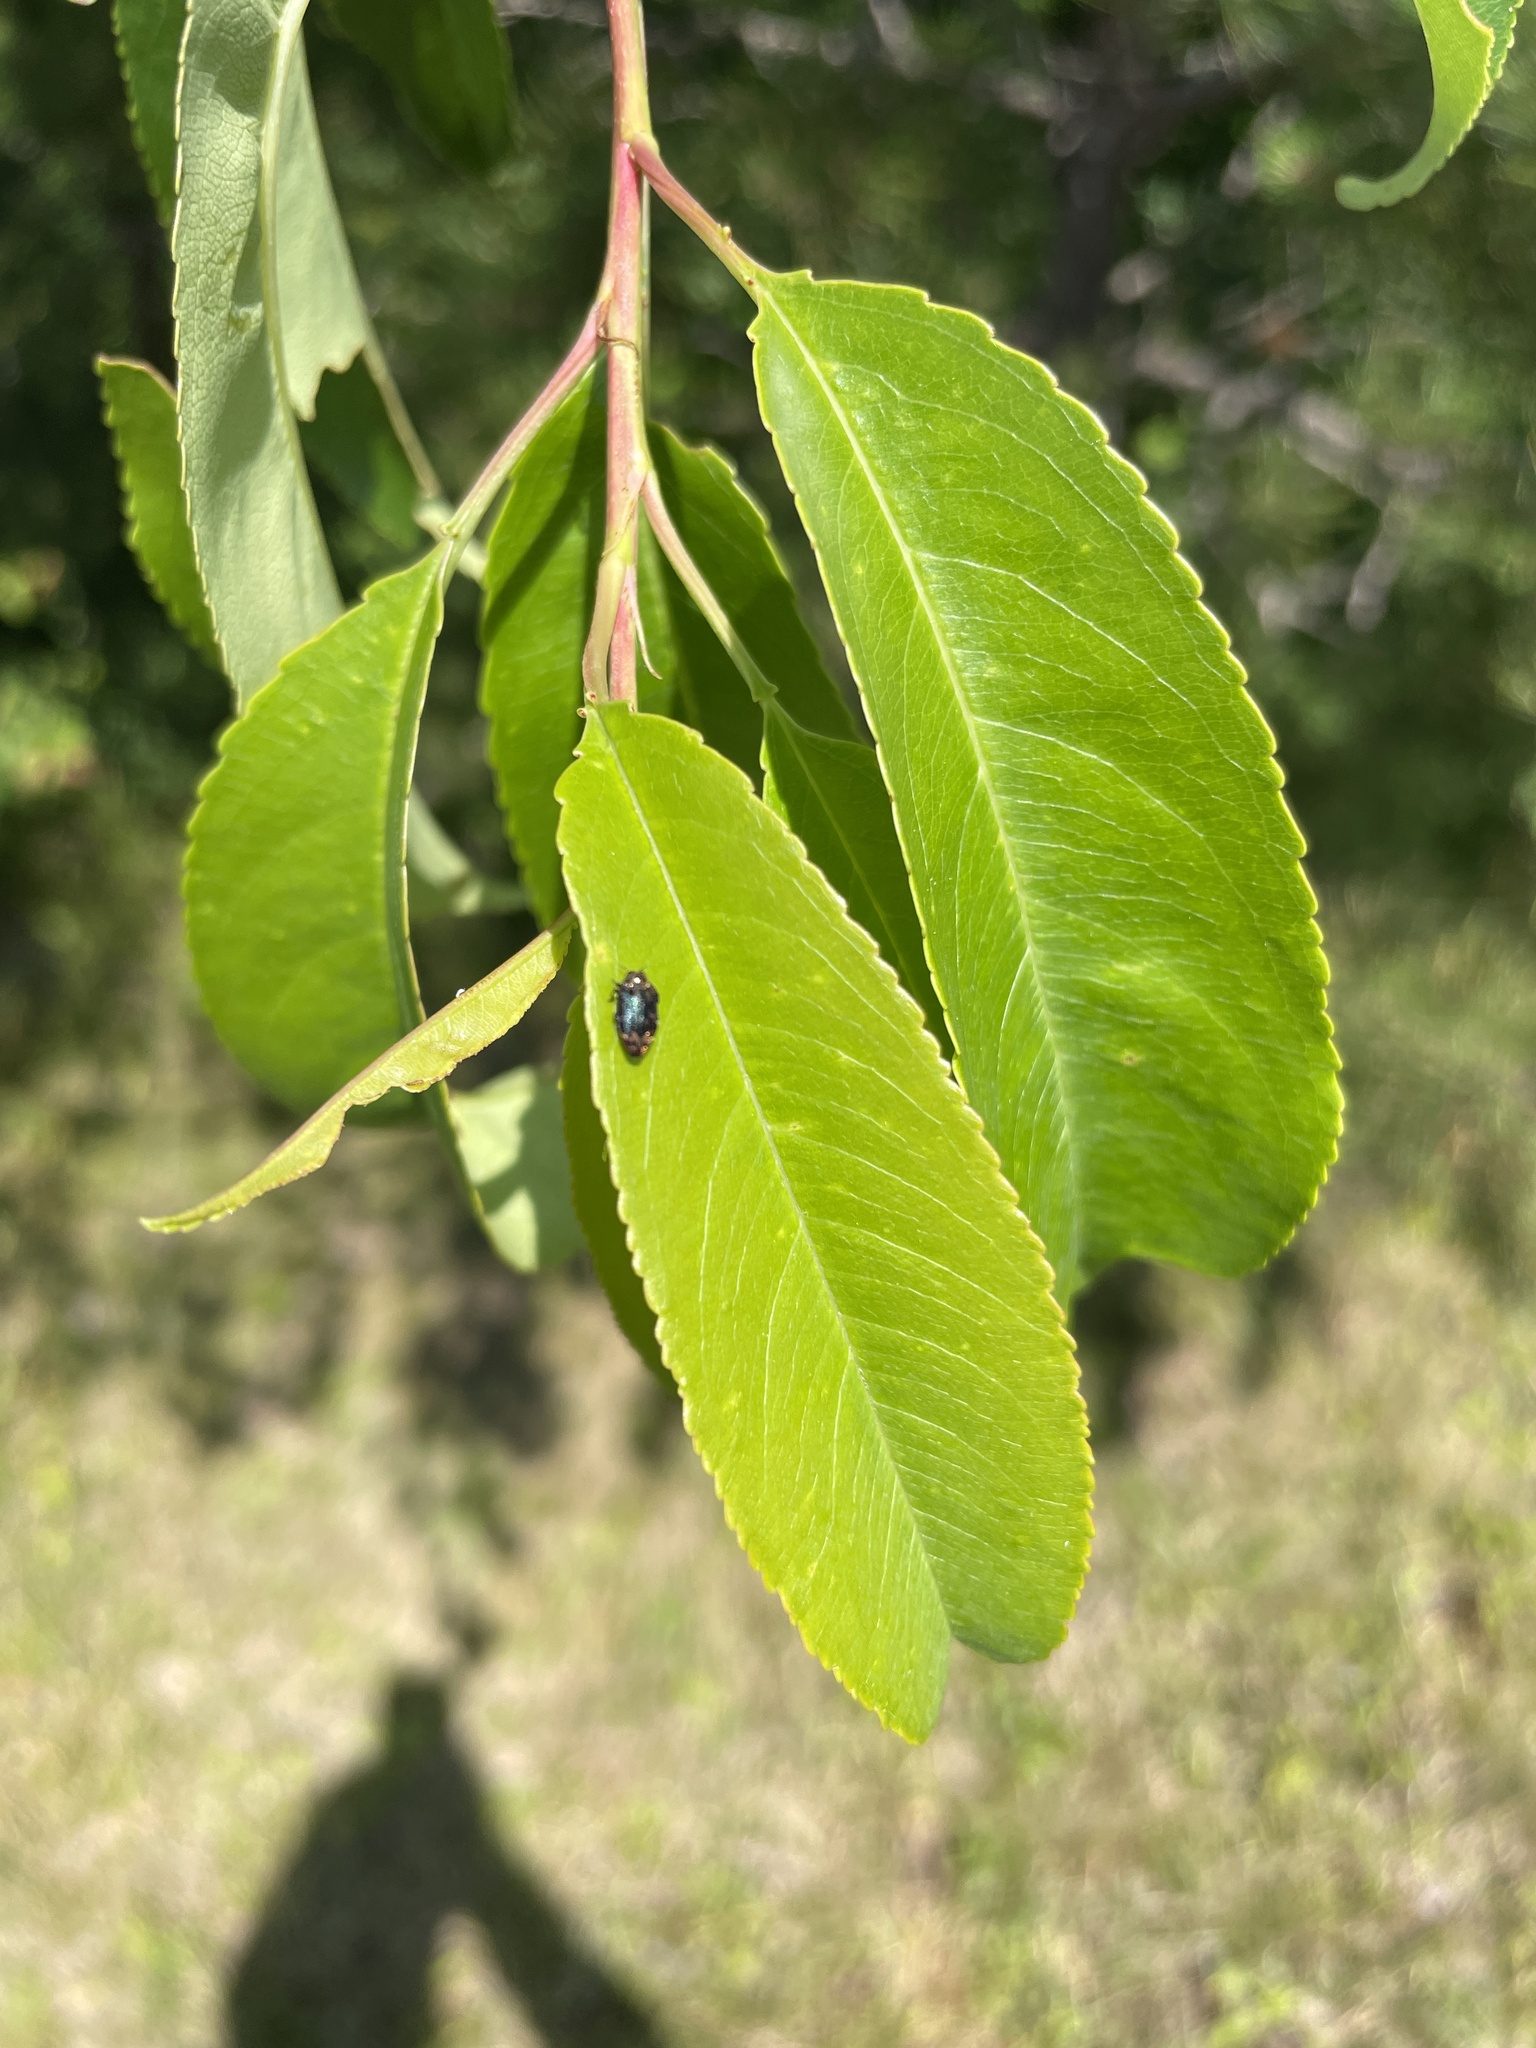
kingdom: Animalia
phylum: Arthropoda
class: Insecta
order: Coleoptera
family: Buprestidae
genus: Brachys
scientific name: Brachys aerosus
